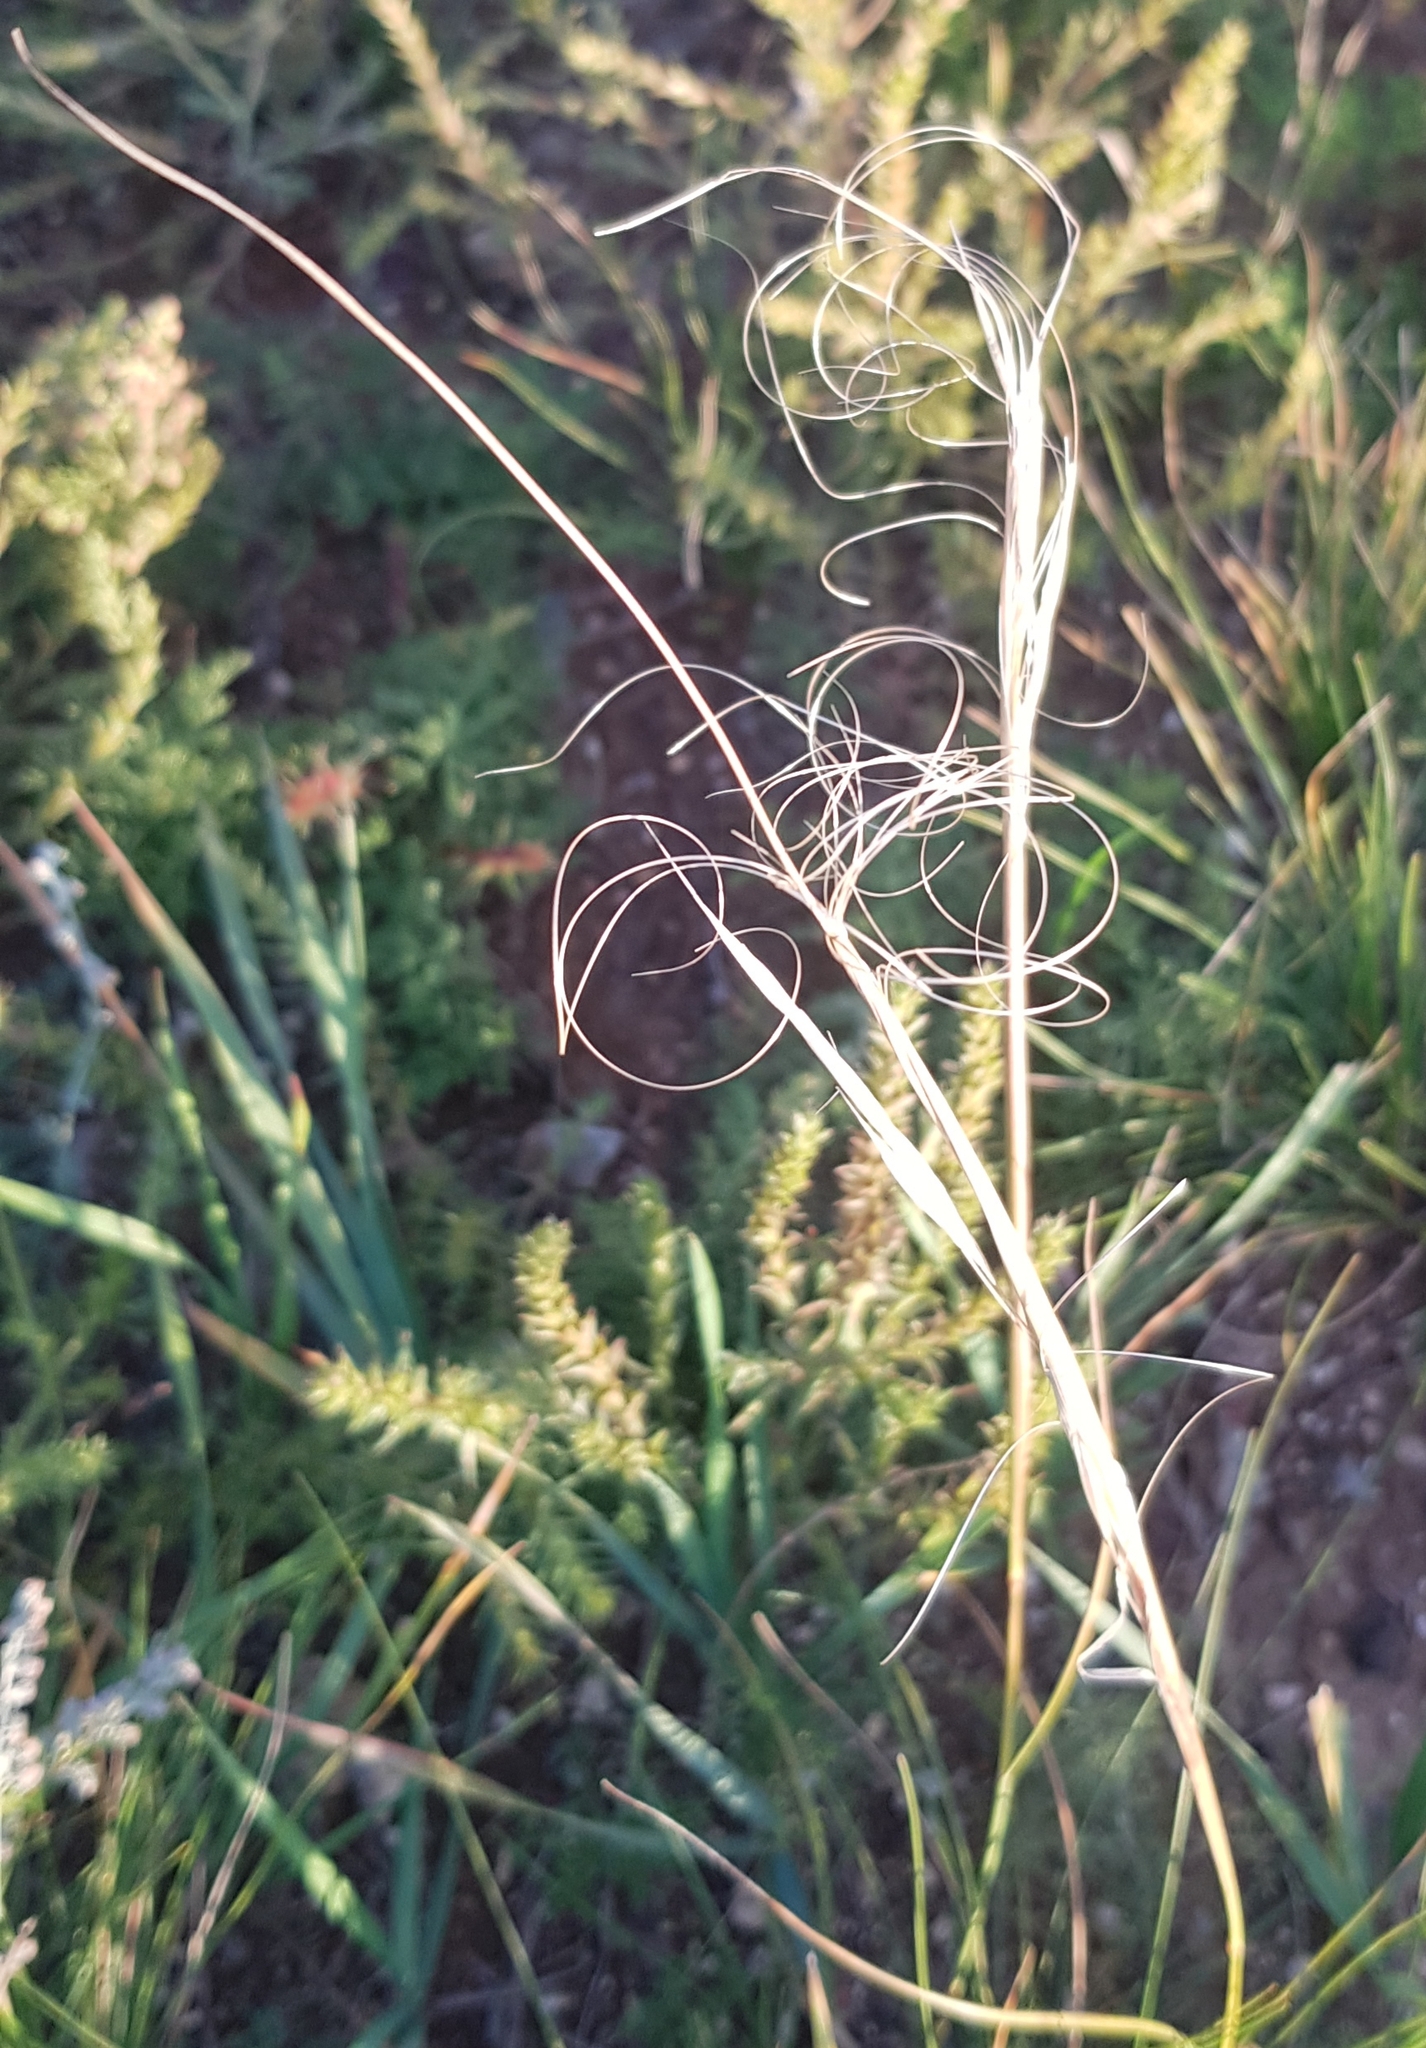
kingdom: Plantae
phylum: Tracheophyta
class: Liliopsida
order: Poales
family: Poaceae
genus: Stipa
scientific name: Stipa krylovii
